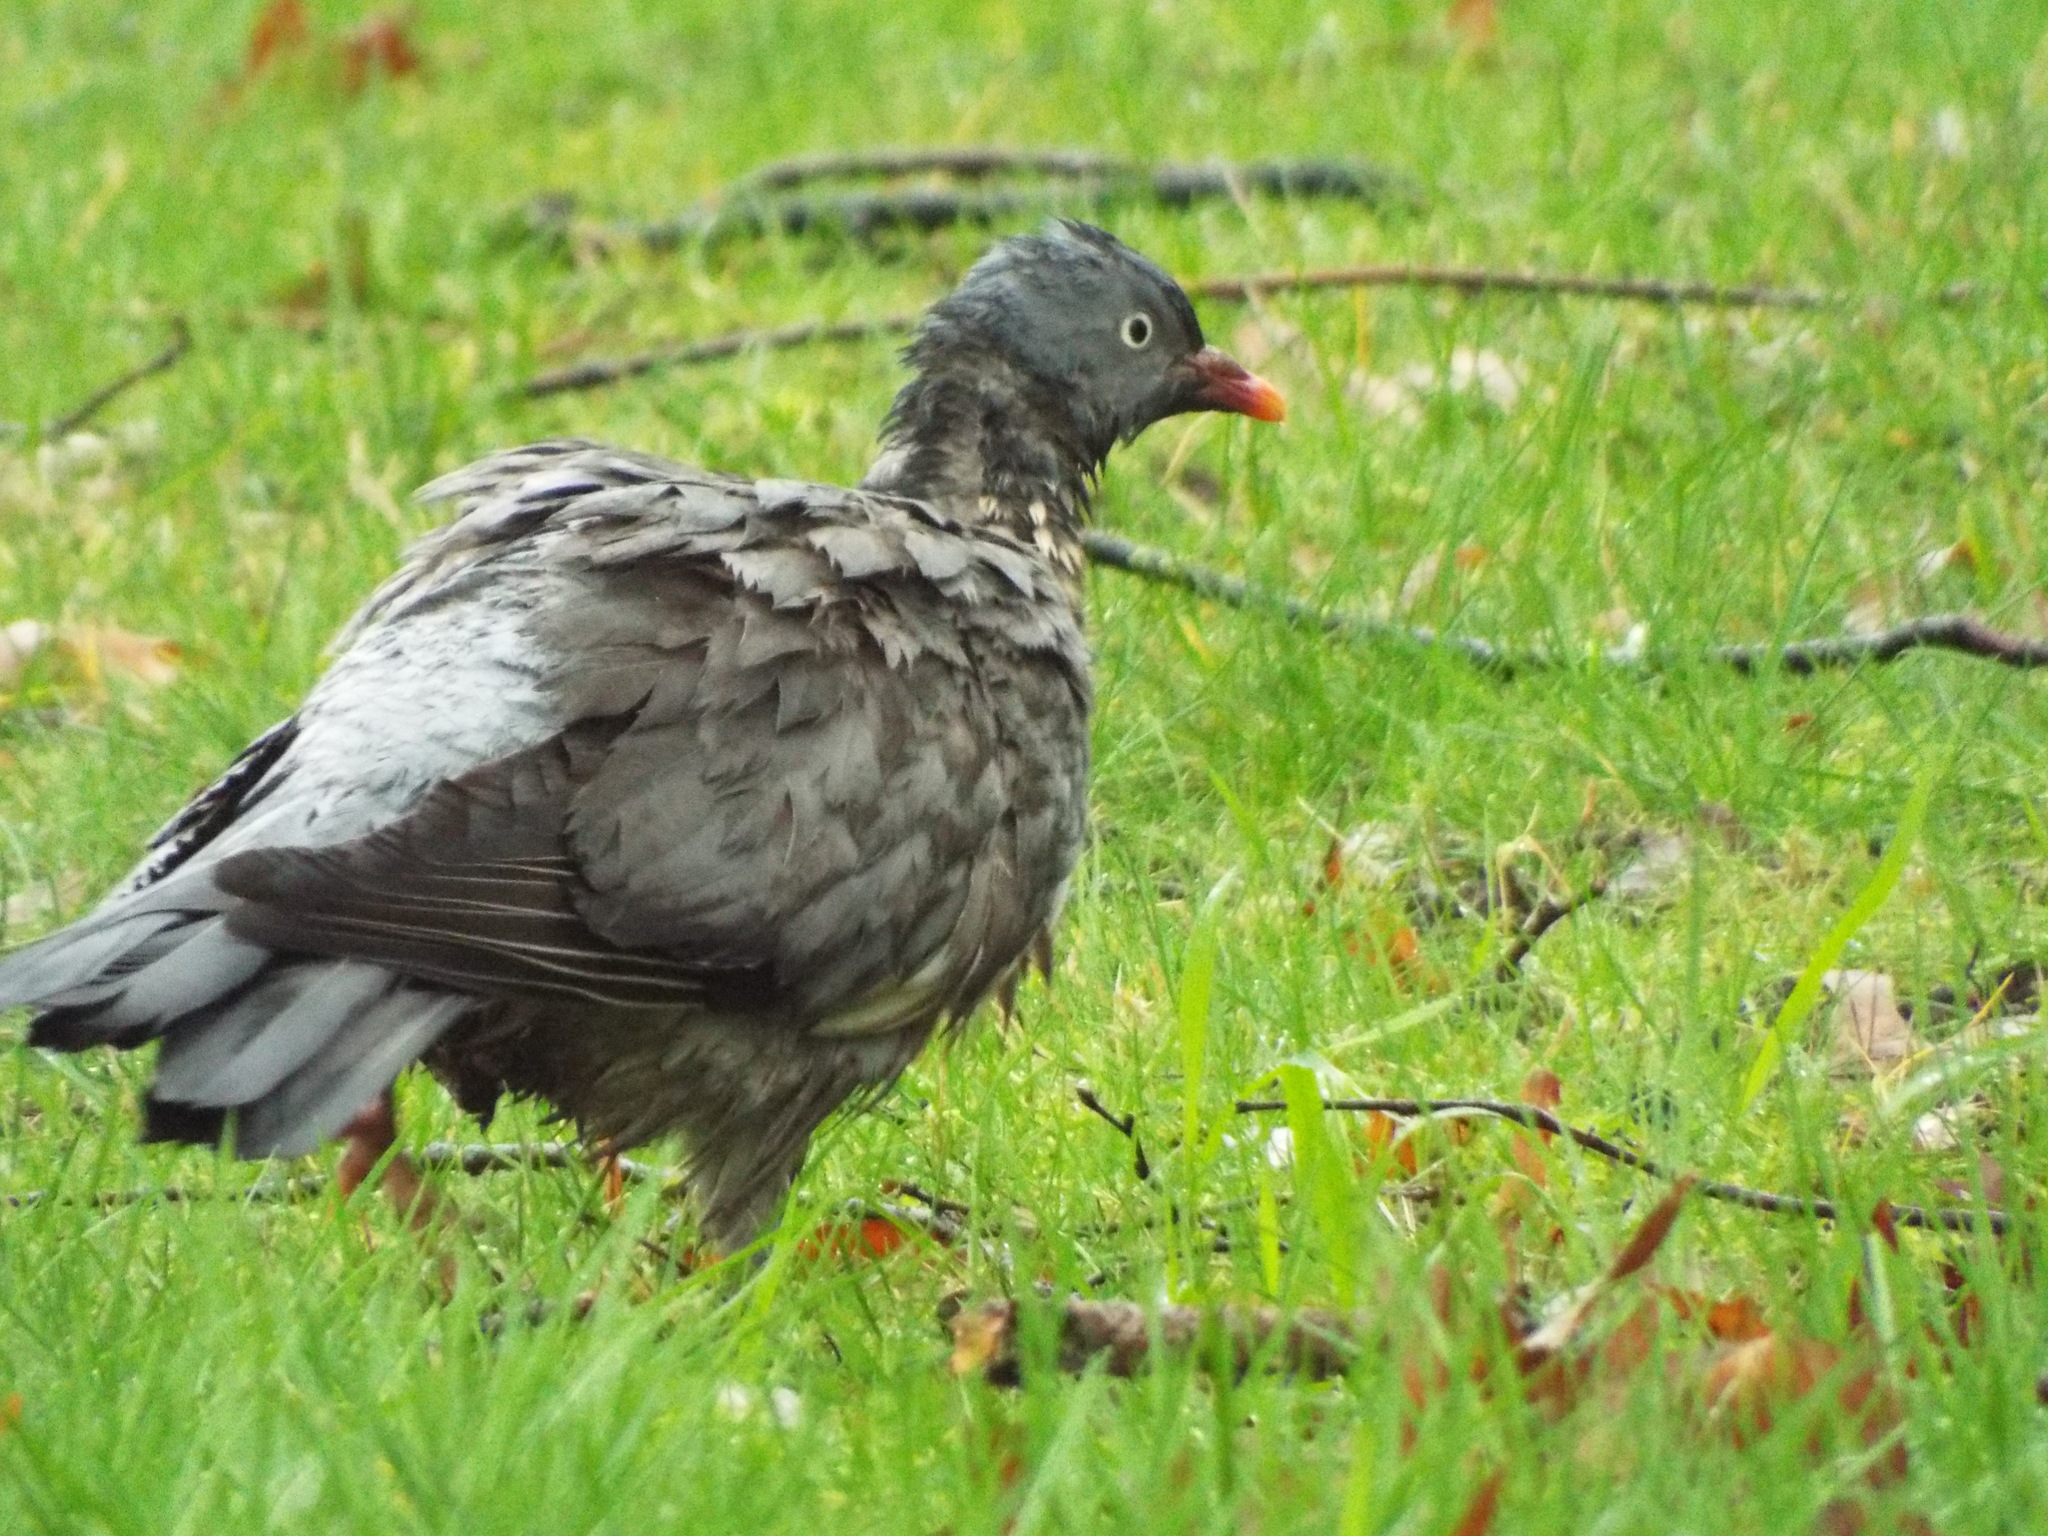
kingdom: Animalia
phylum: Chordata
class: Aves
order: Columbiformes
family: Columbidae
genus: Columba
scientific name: Columba palumbus
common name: Common wood pigeon
